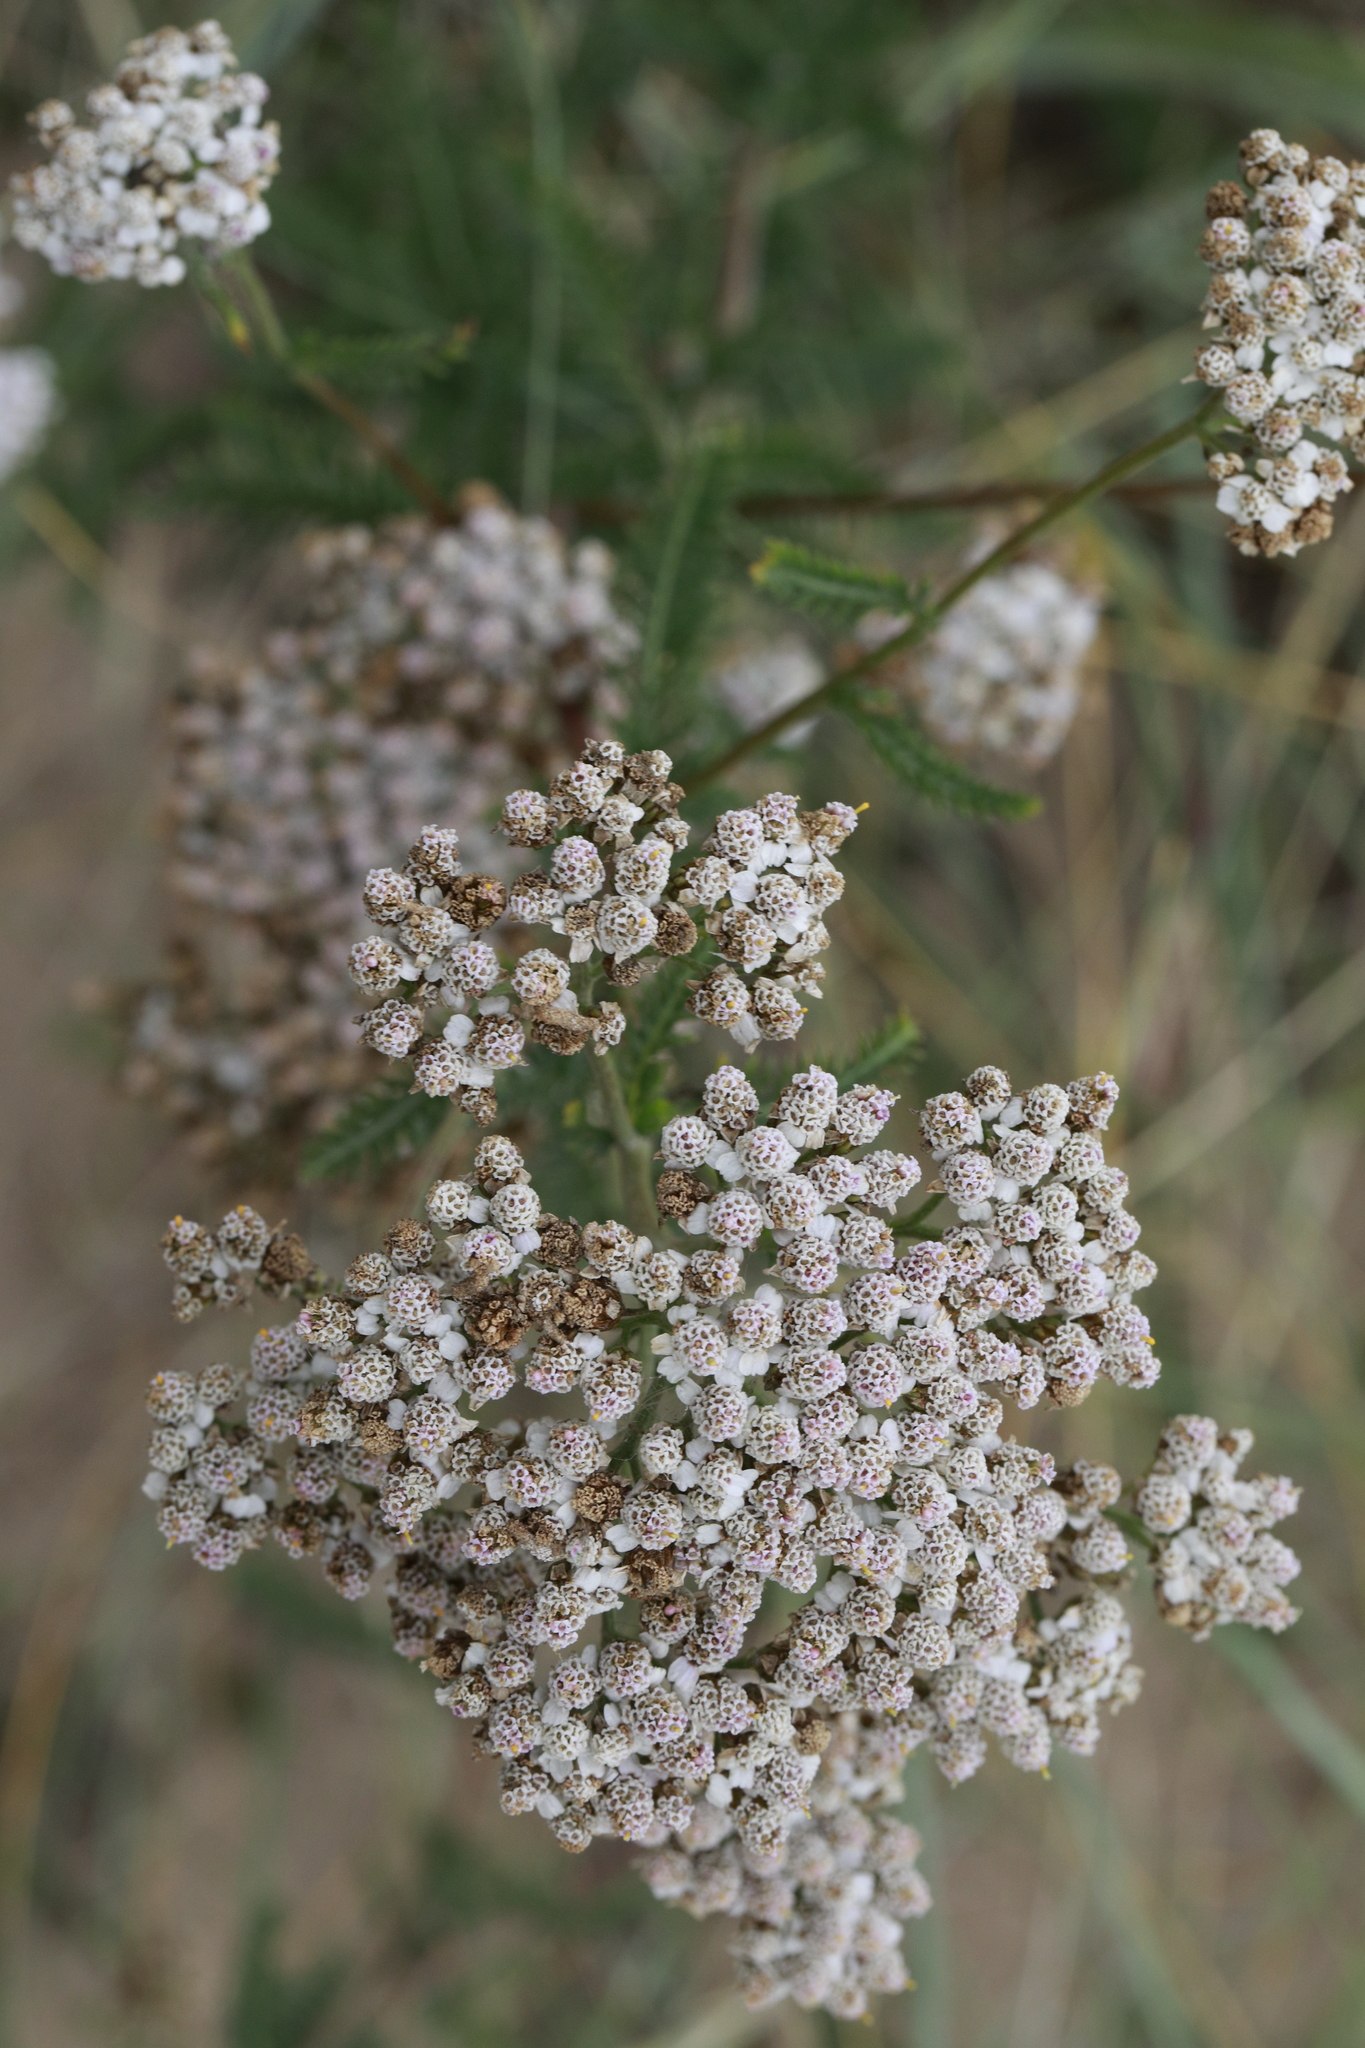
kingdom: Plantae
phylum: Tracheophyta
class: Magnoliopsida
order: Asterales
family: Asteraceae
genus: Achillea
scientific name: Achillea millefolium
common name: Yarrow
